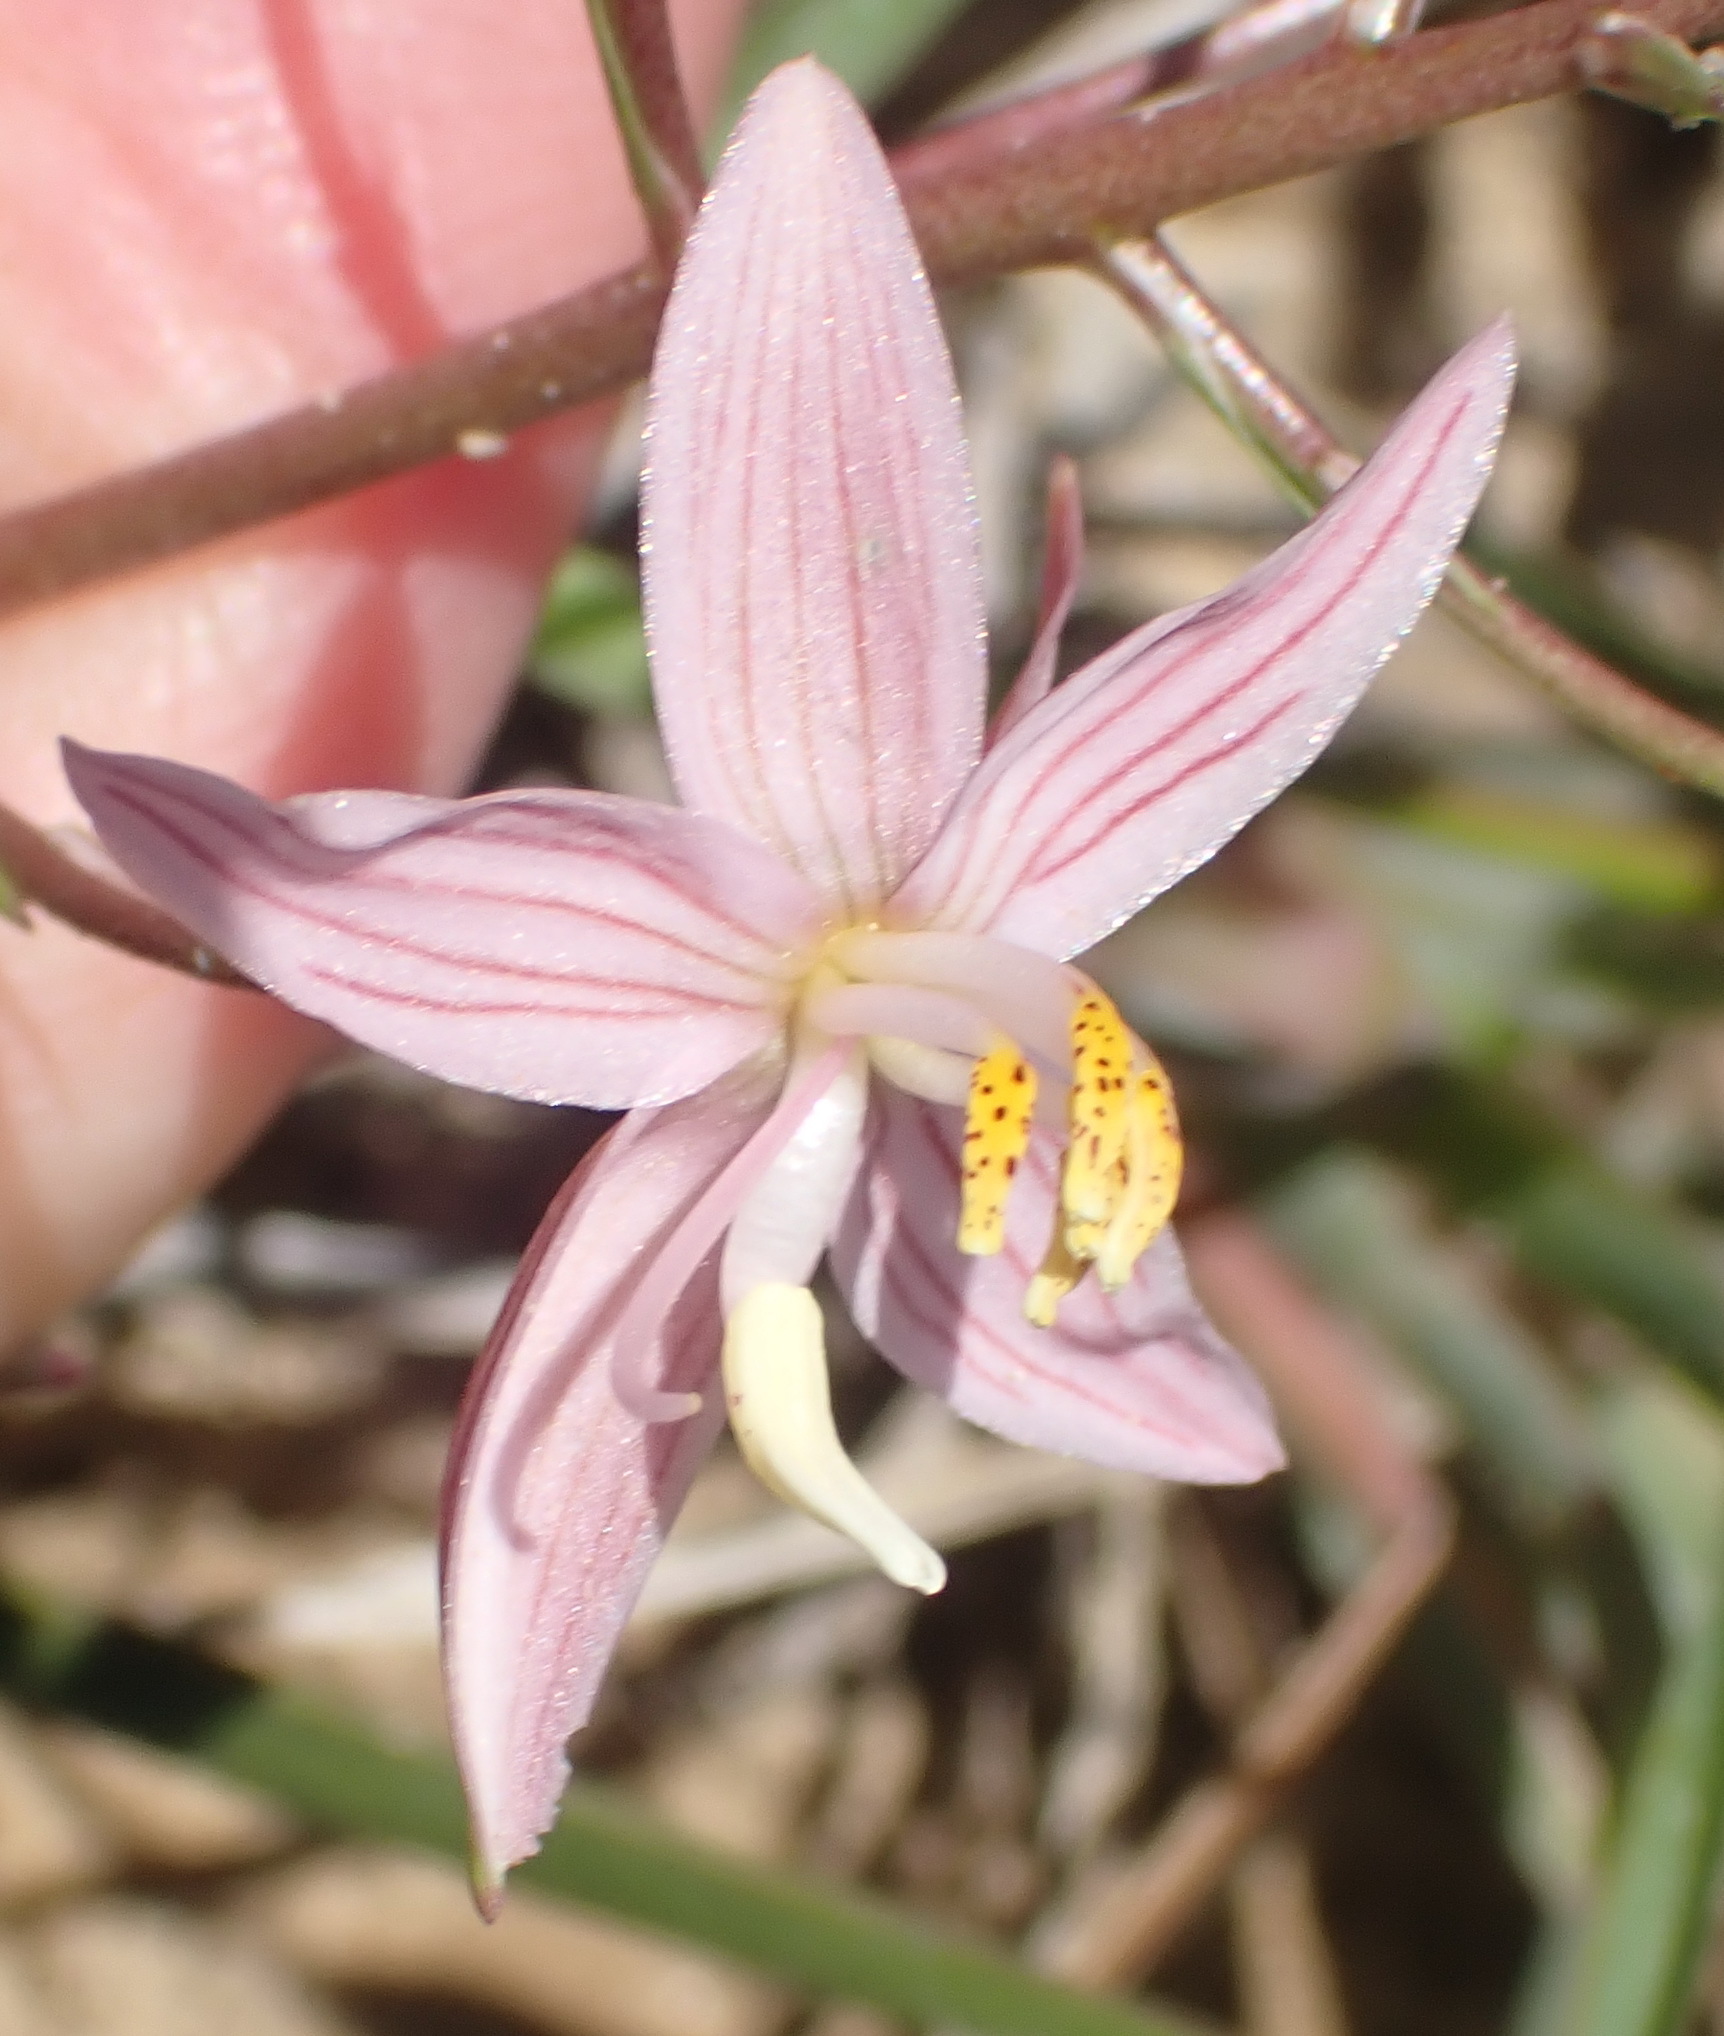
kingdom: Plantae
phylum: Tracheophyta
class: Liliopsida
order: Asparagales
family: Tecophilaeaceae
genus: Cyanella
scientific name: Cyanella lutea
